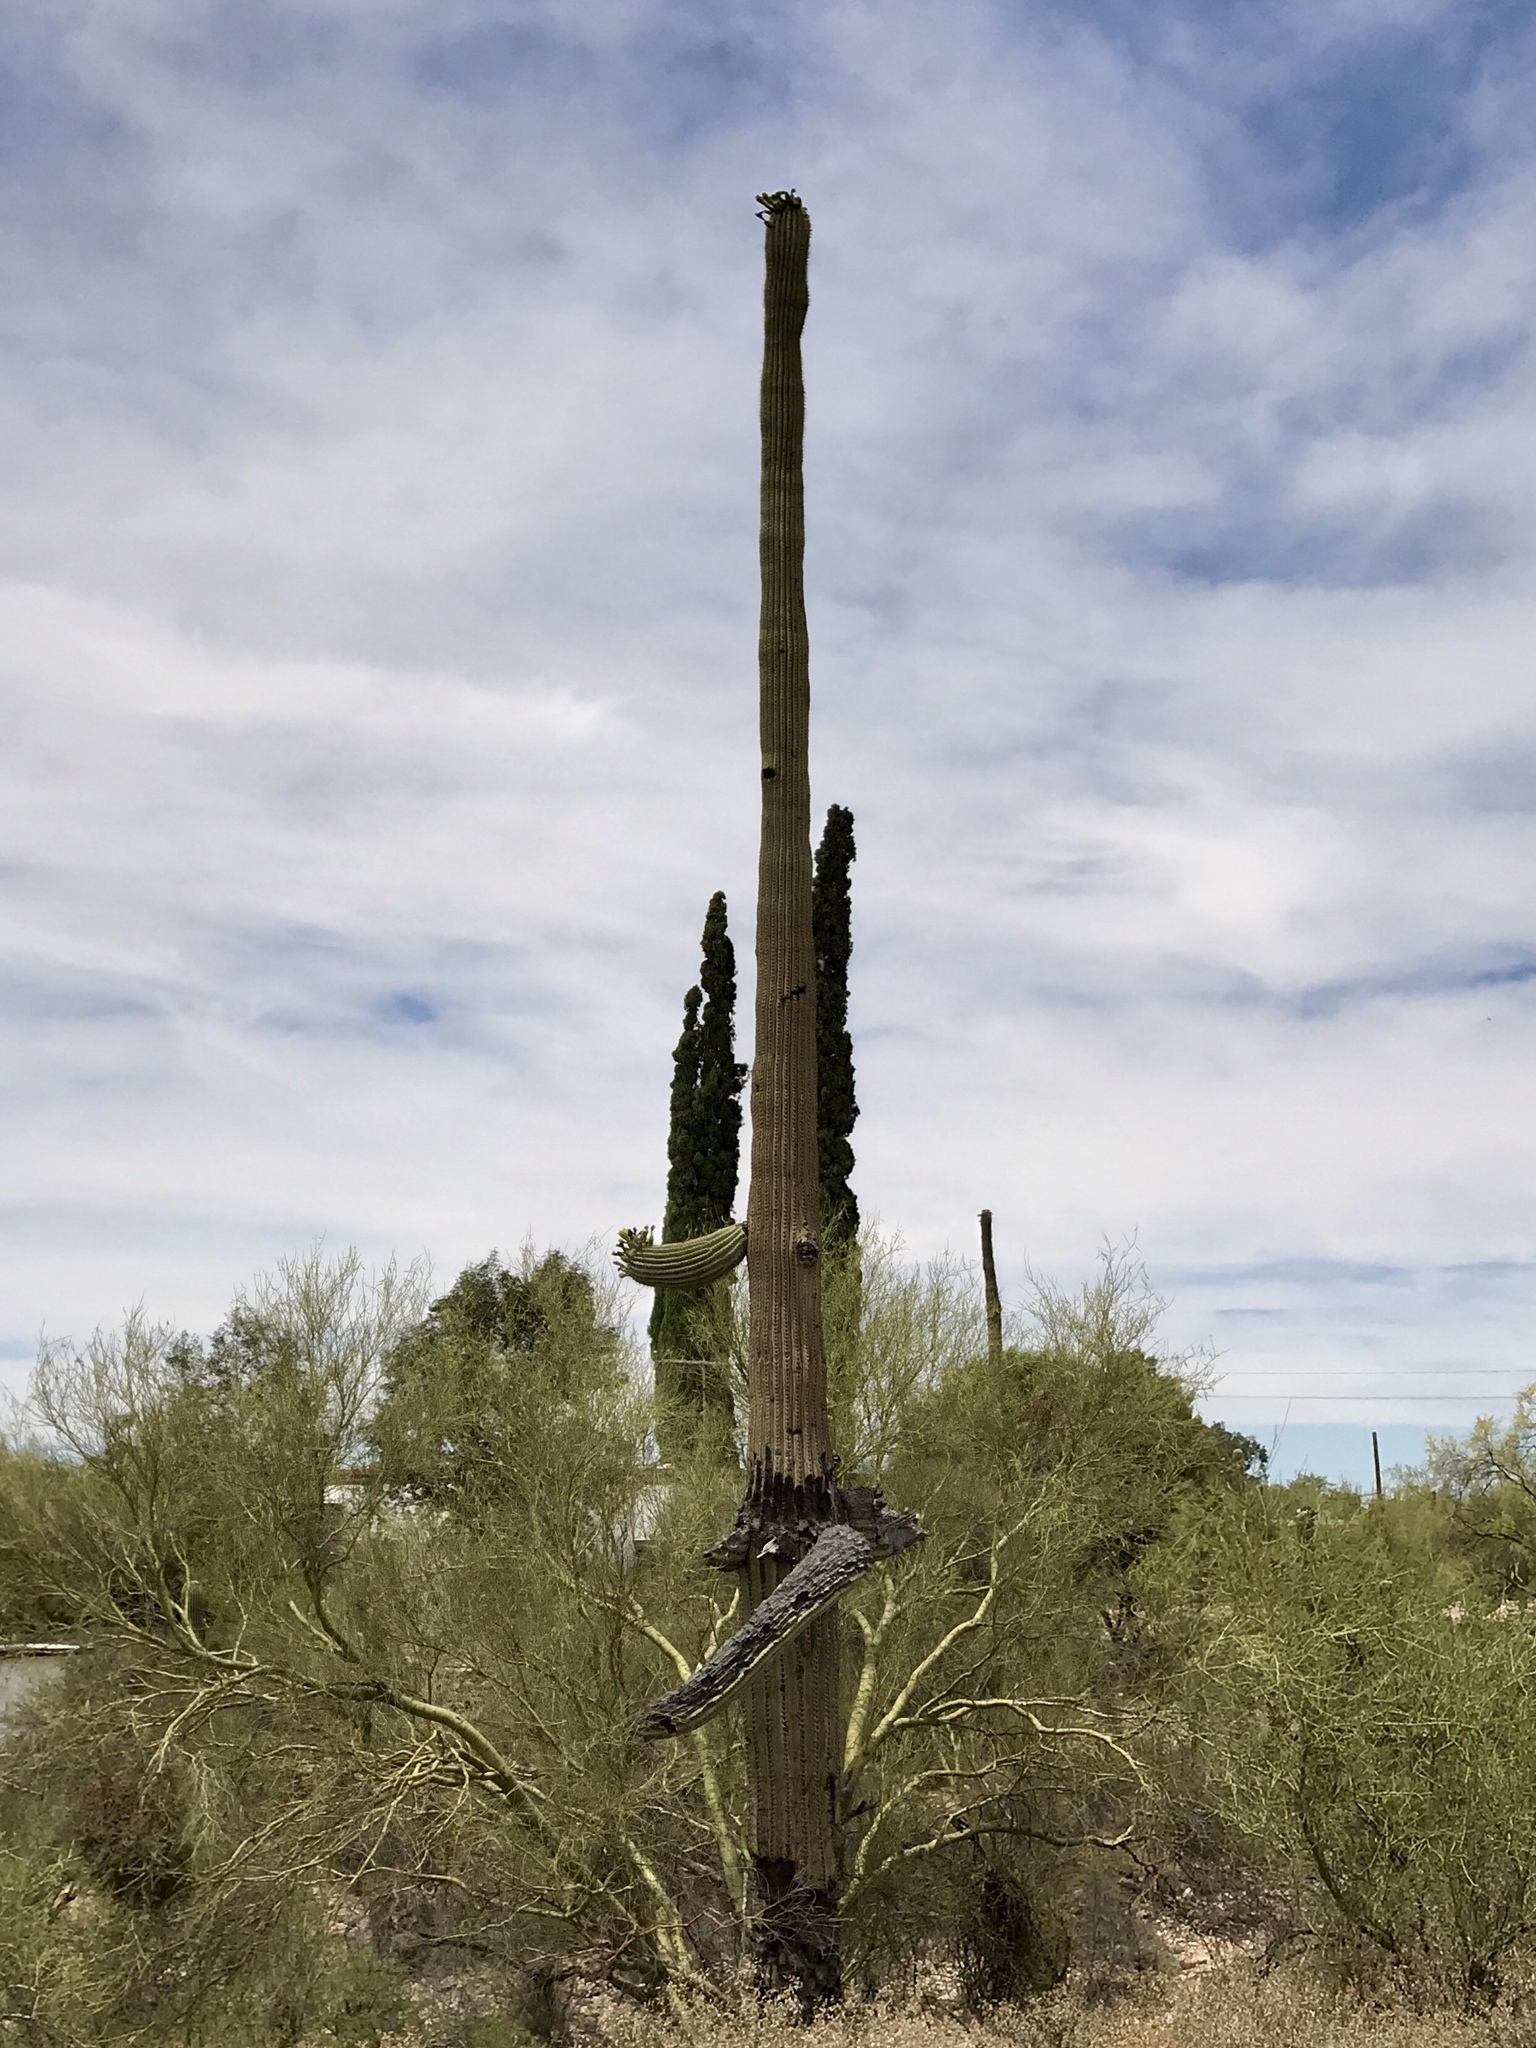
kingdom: Plantae
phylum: Tracheophyta
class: Magnoliopsida
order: Caryophyllales
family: Cactaceae
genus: Carnegiea
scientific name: Carnegiea gigantea
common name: Saguaro
